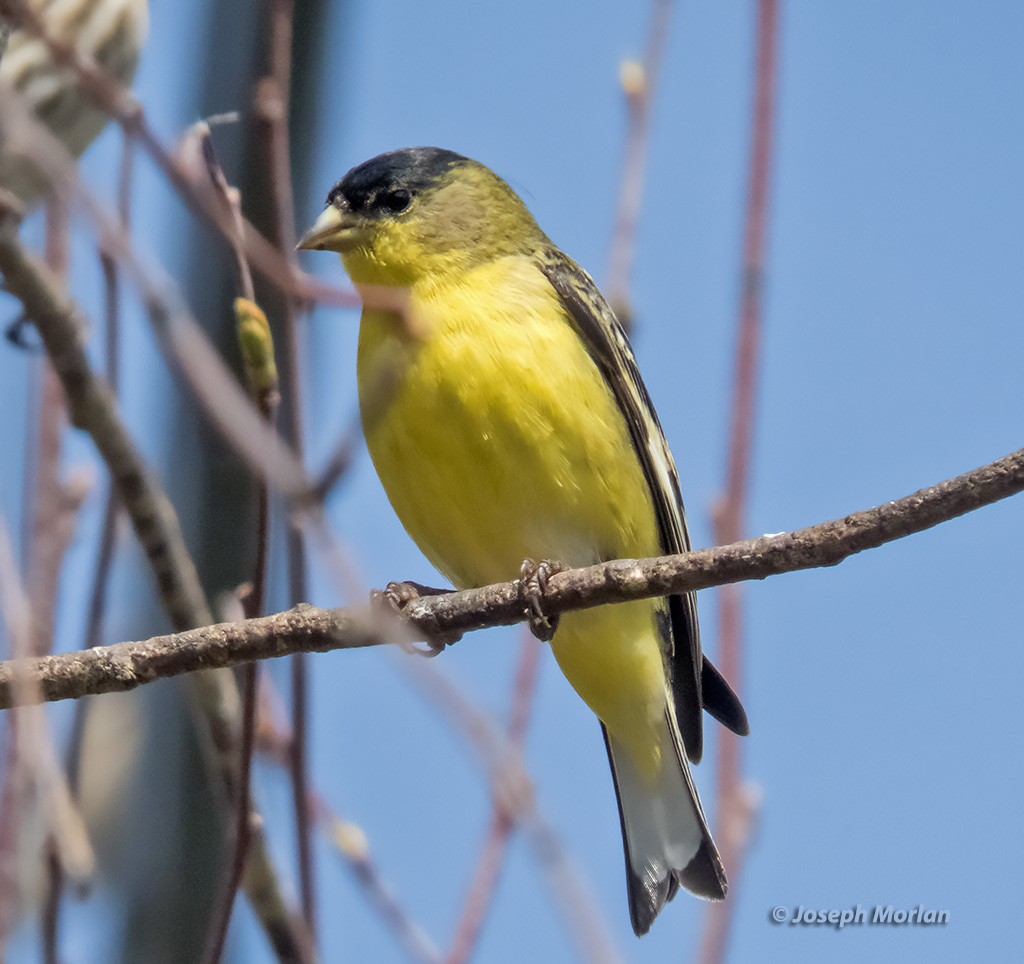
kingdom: Animalia
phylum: Chordata
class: Aves
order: Passeriformes
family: Fringillidae
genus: Spinus
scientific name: Spinus psaltria
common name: Lesser goldfinch
